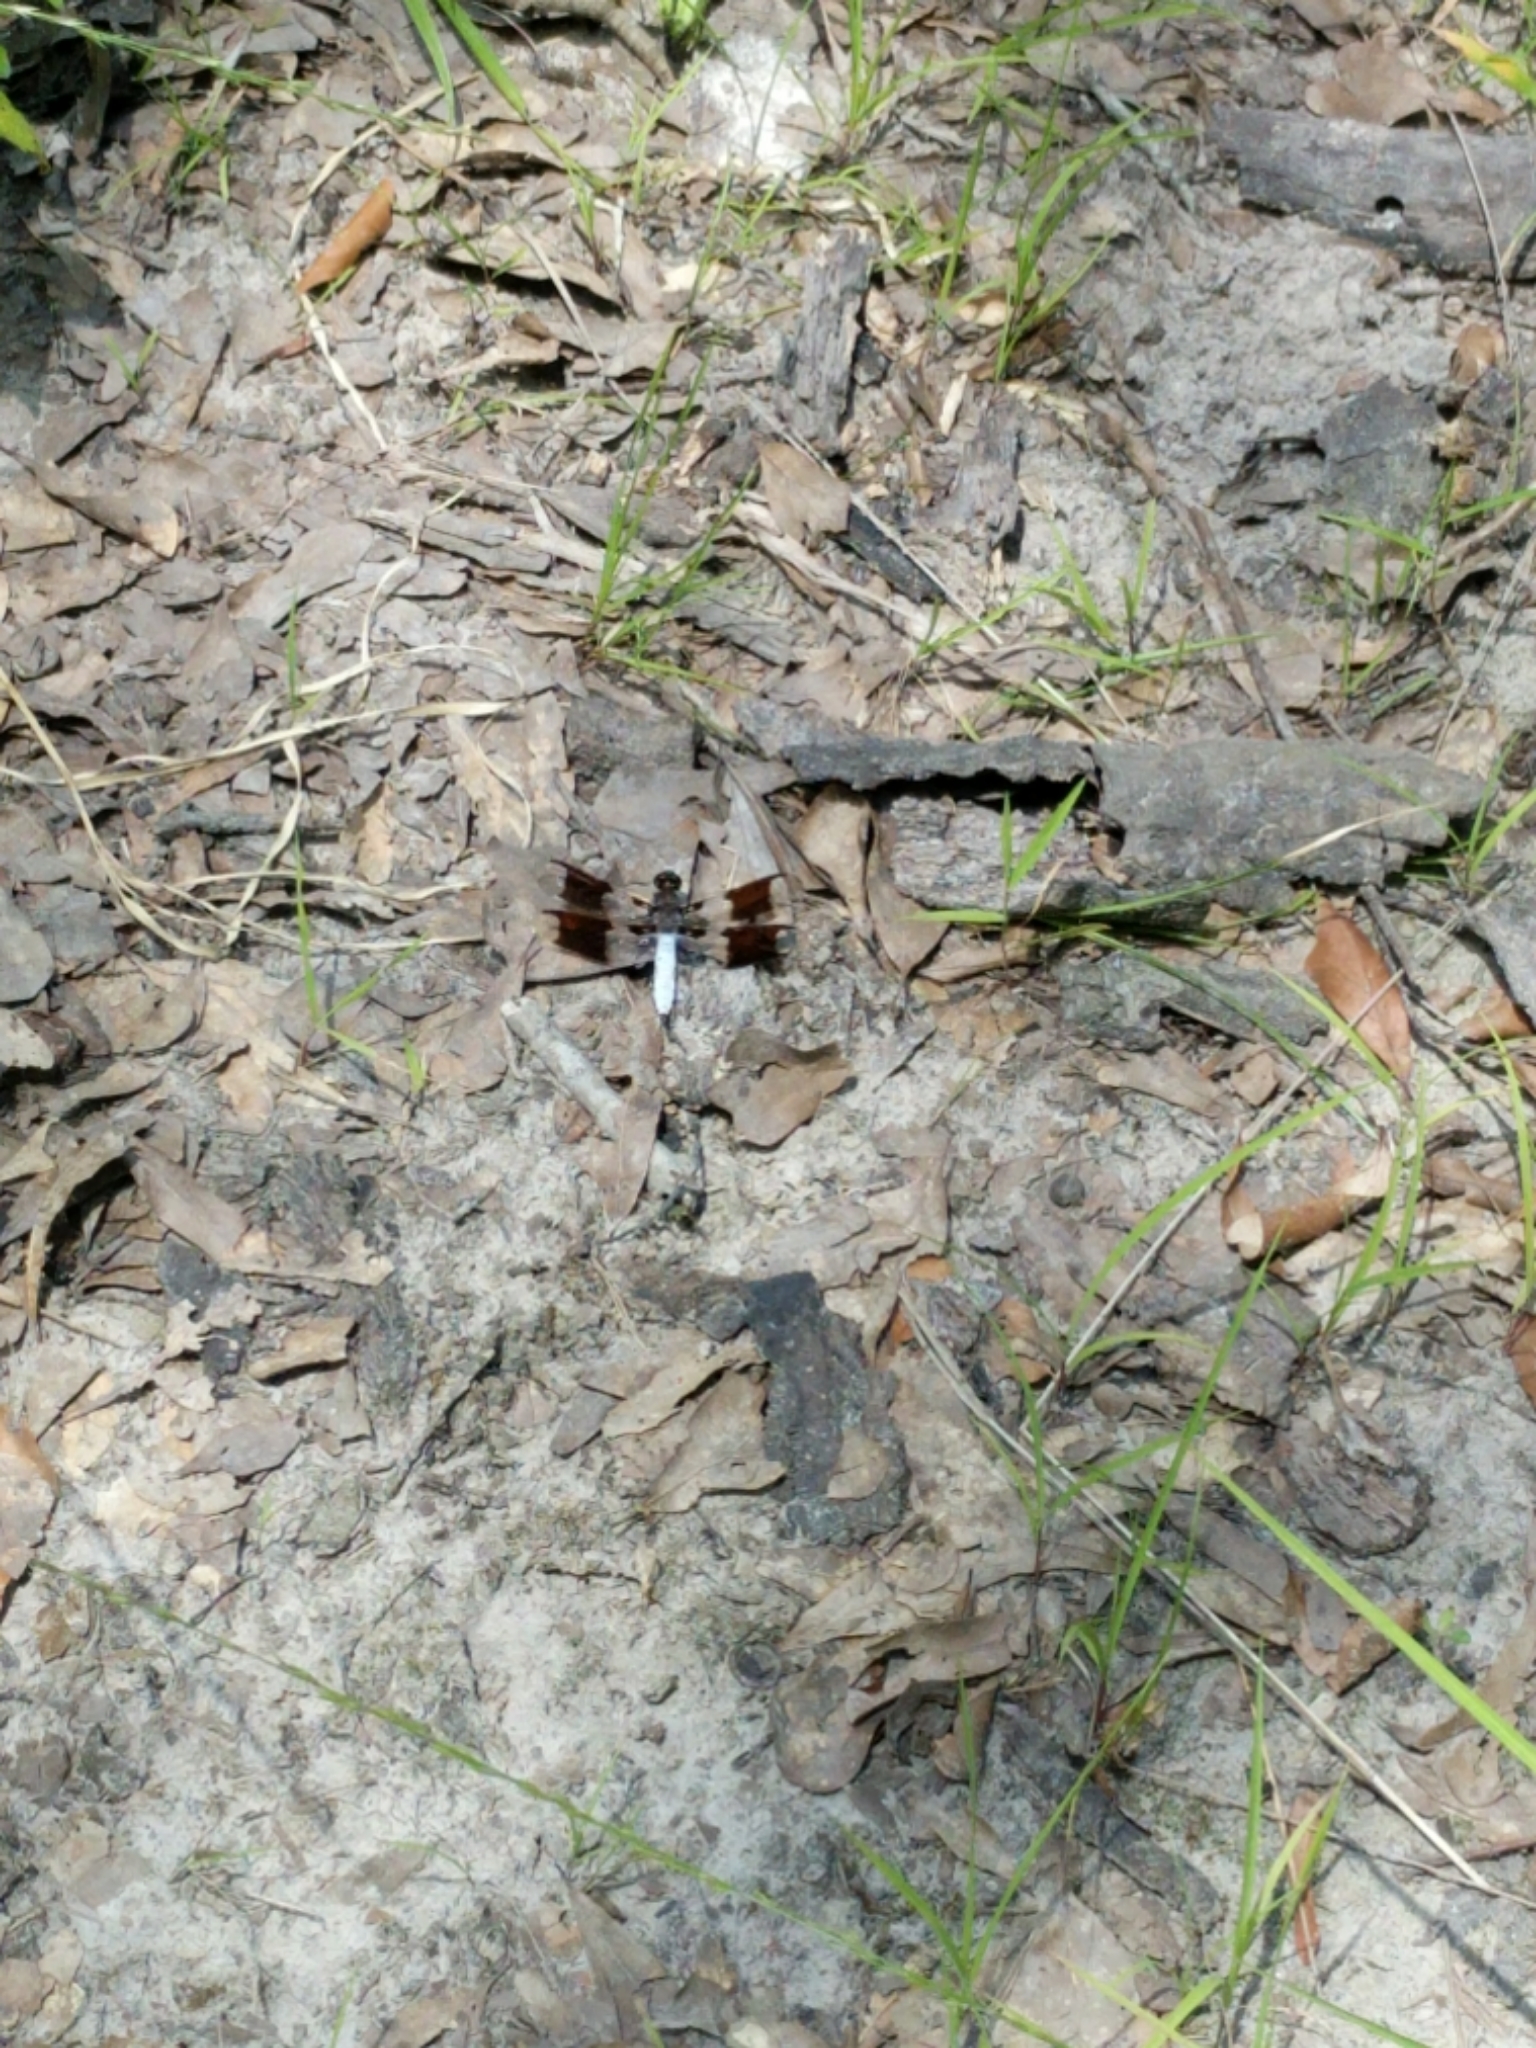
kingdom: Animalia
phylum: Arthropoda
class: Insecta
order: Odonata
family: Libellulidae
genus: Plathemis
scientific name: Plathemis lydia
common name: Common whitetail
